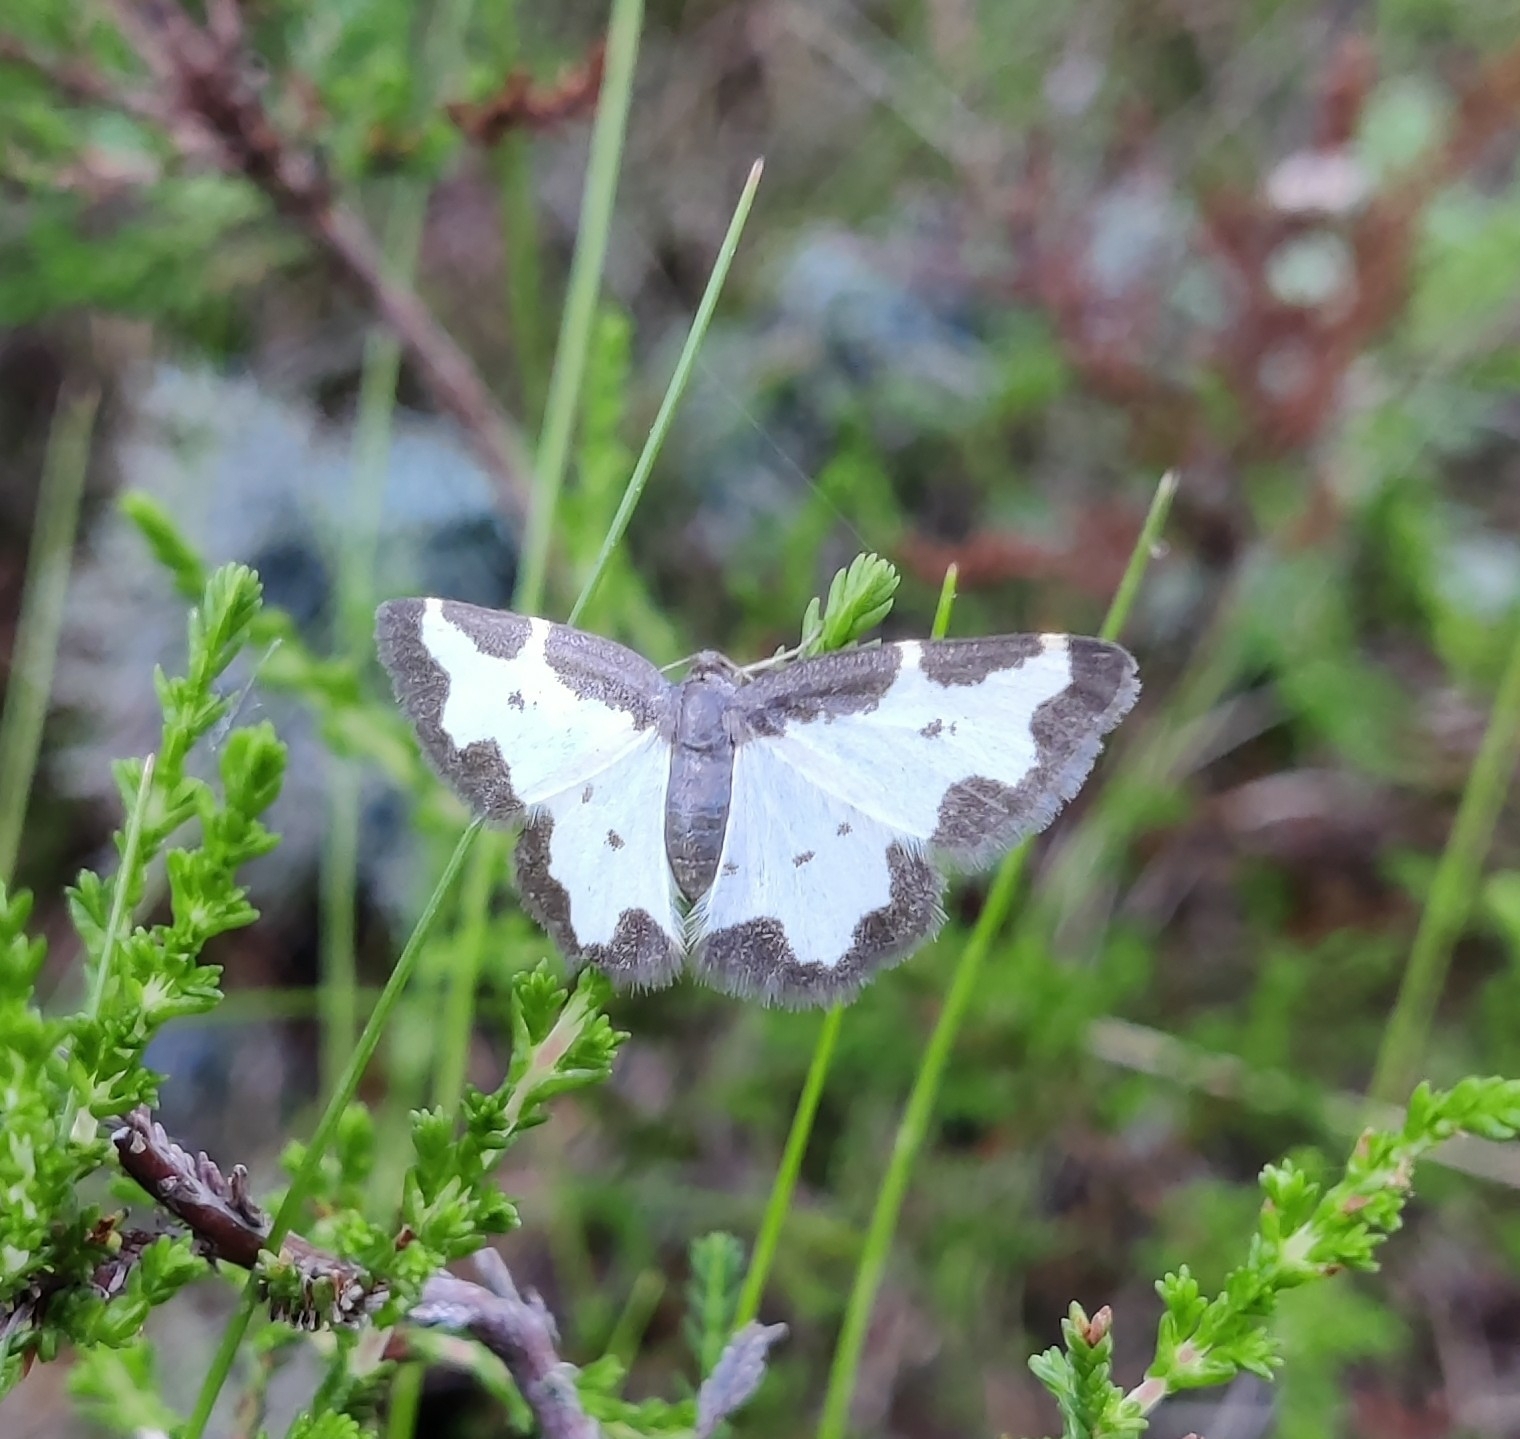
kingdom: Animalia
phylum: Arthropoda
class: Insecta
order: Lepidoptera
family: Geometridae
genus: Lomaspilis
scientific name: Lomaspilis marginata
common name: Clouded border
